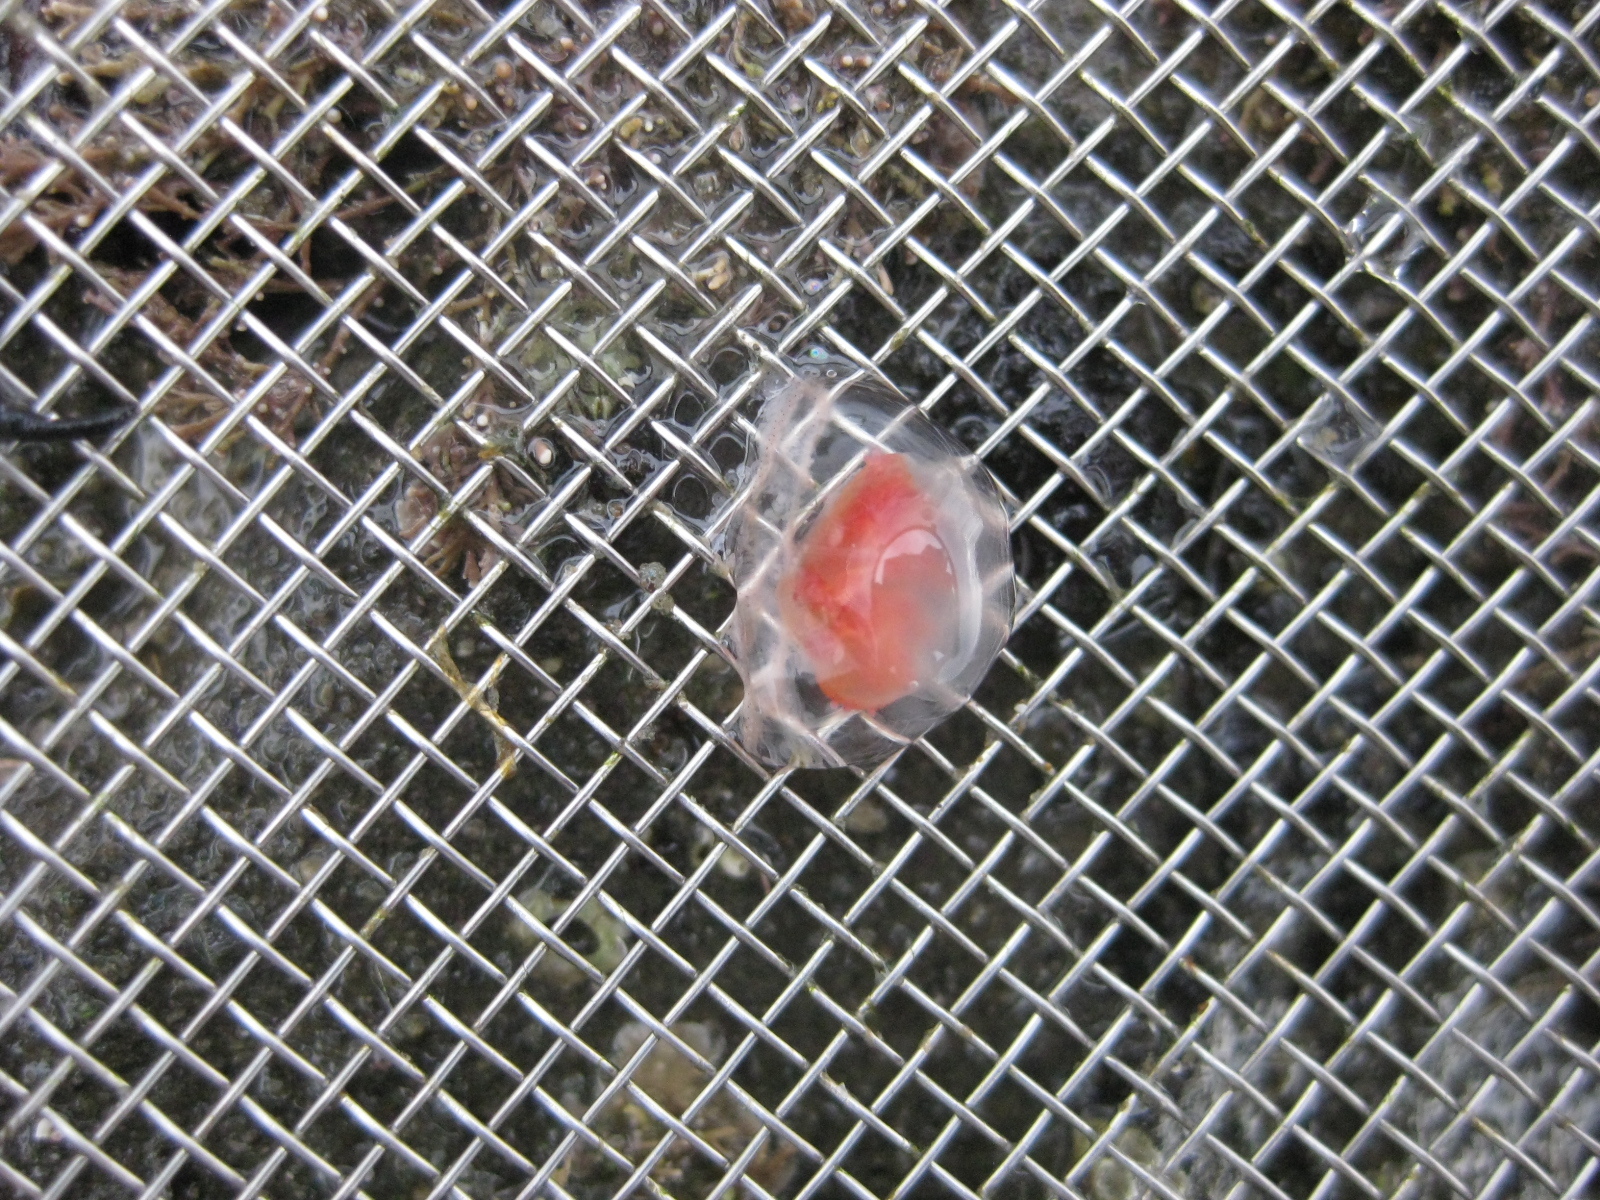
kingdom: Animalia
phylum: Cnidaria
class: Hydrozoa
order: Anthoathecata
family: Oceaniidae
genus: Turritopsis
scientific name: Turritopsis rubra
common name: Crimson jelly
